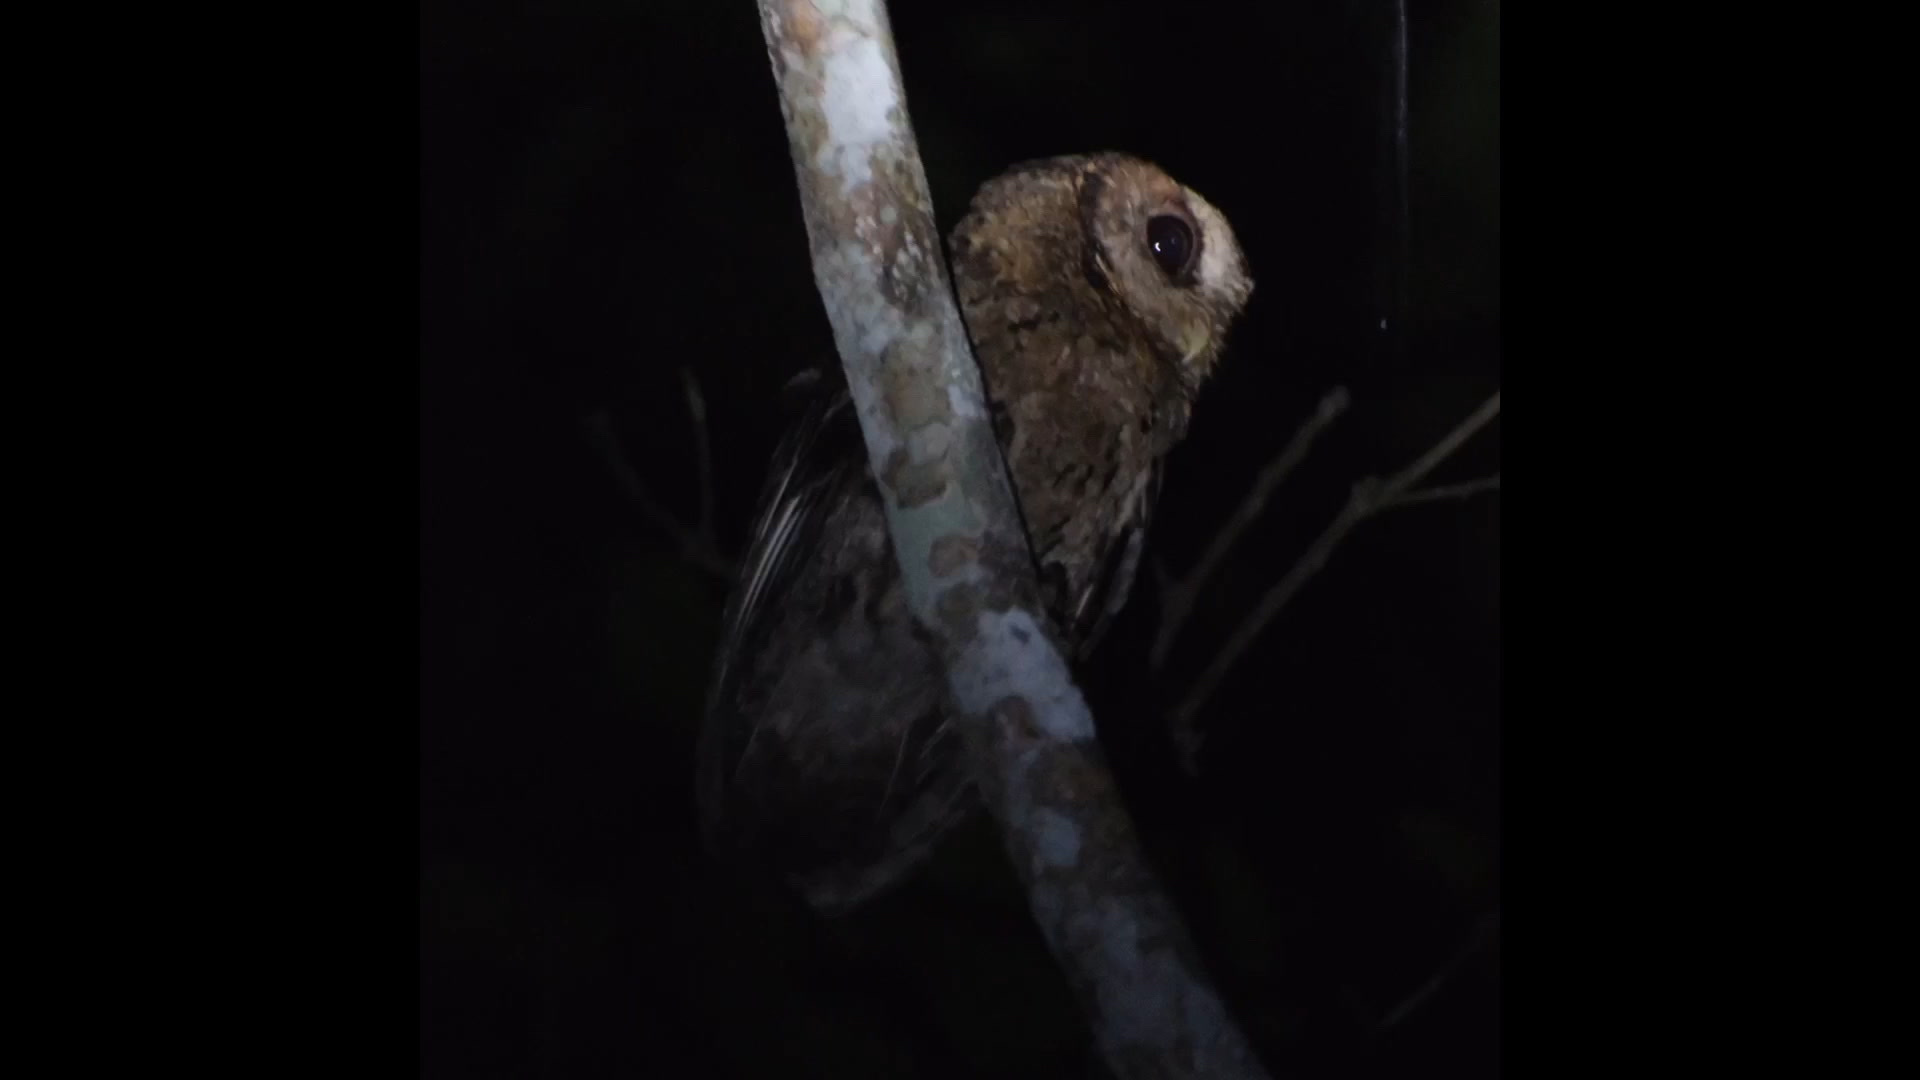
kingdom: Animalia
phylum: Chordata
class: Aves
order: Strigiformes
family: Strigidae
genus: Otus
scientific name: Otus lettia
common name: Collared scops owl
